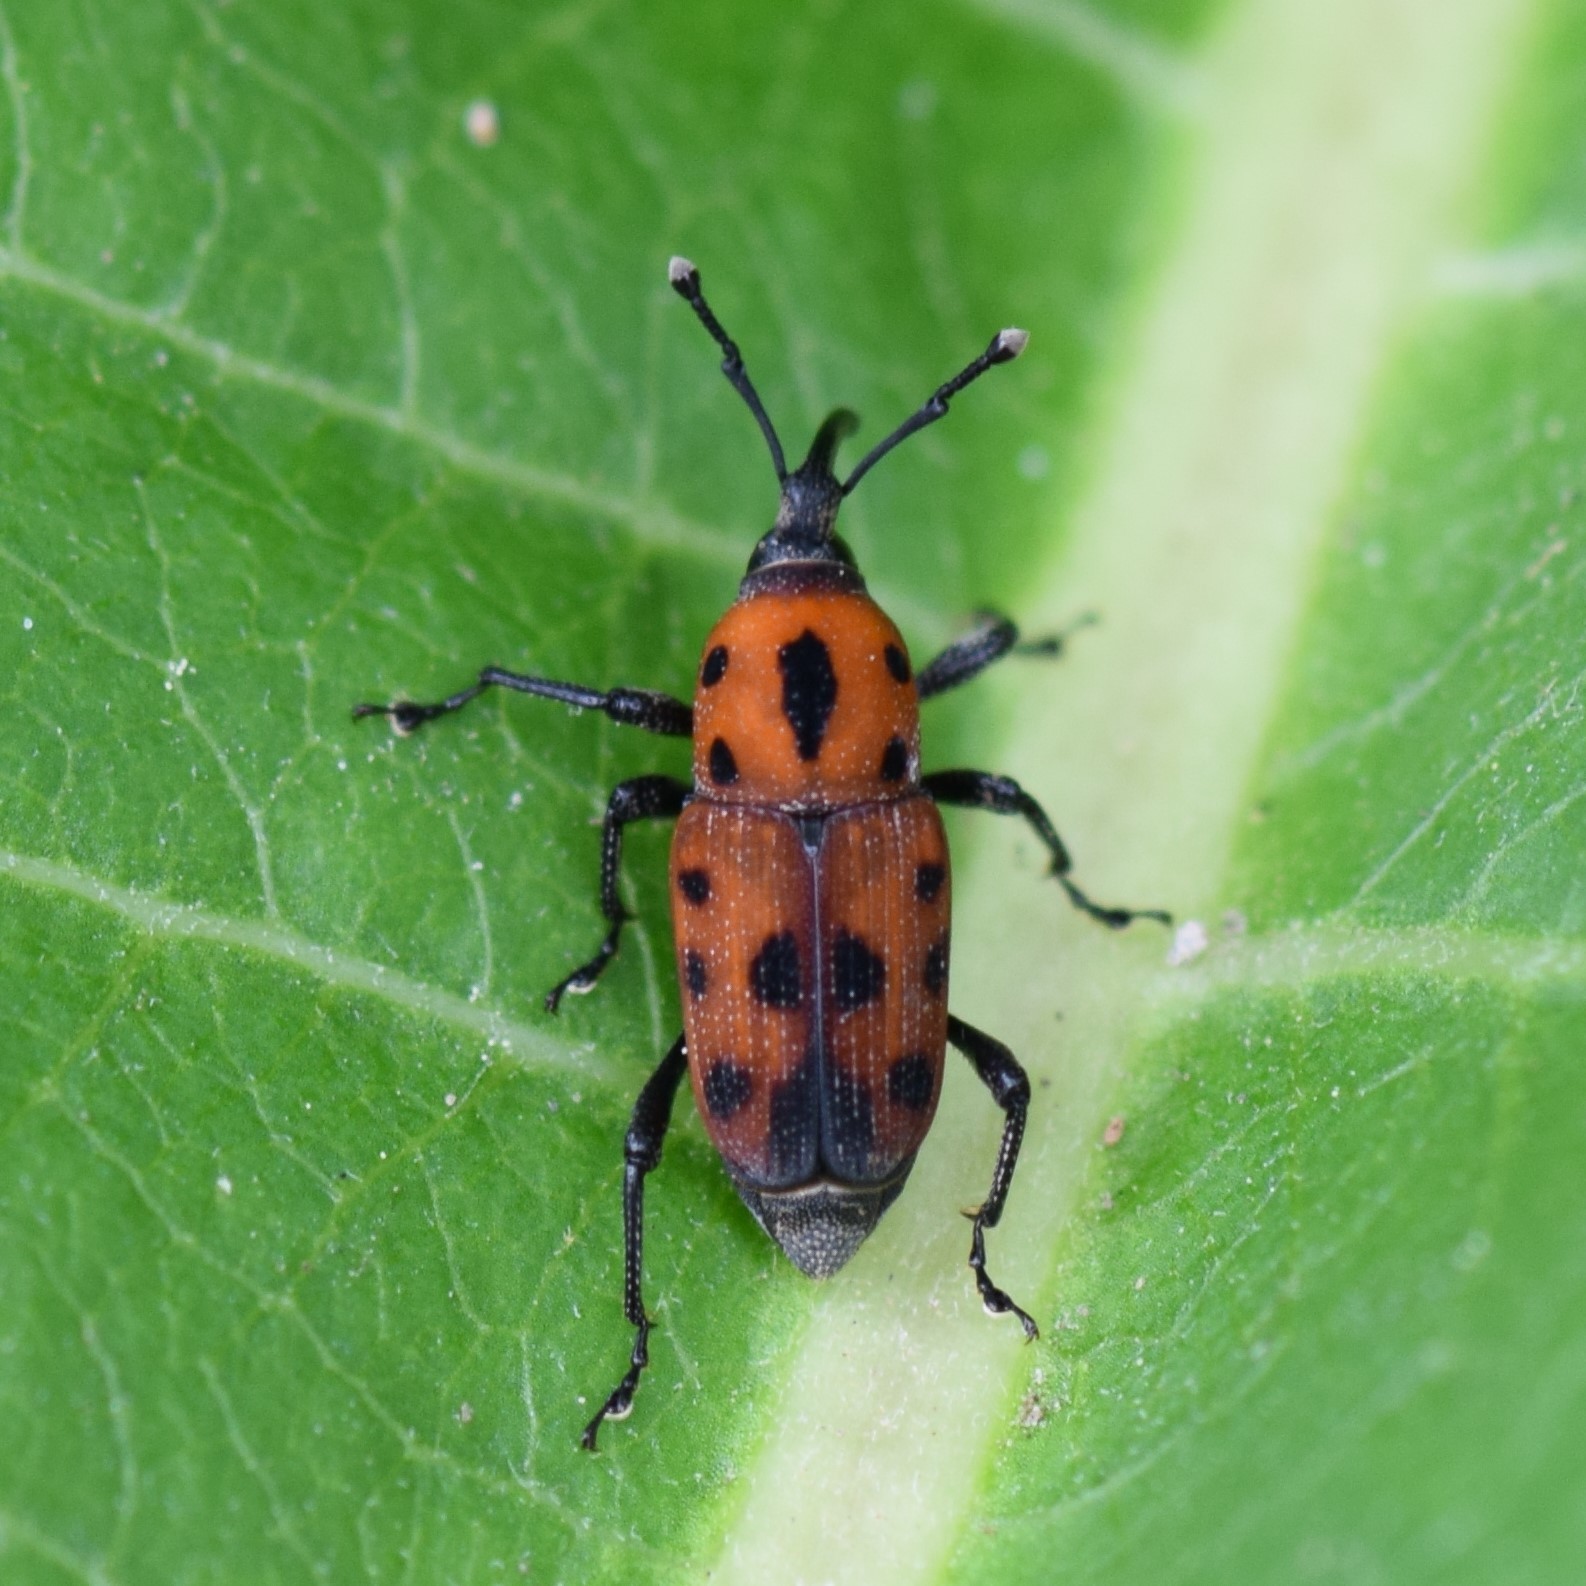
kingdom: Animalia
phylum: Arthropoda
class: Insecta
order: Coleoptera
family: Dryophthoridae
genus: Rhodobaenus
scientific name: Rhodobaenus quinquepunctatus
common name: Cocklebur weevil
